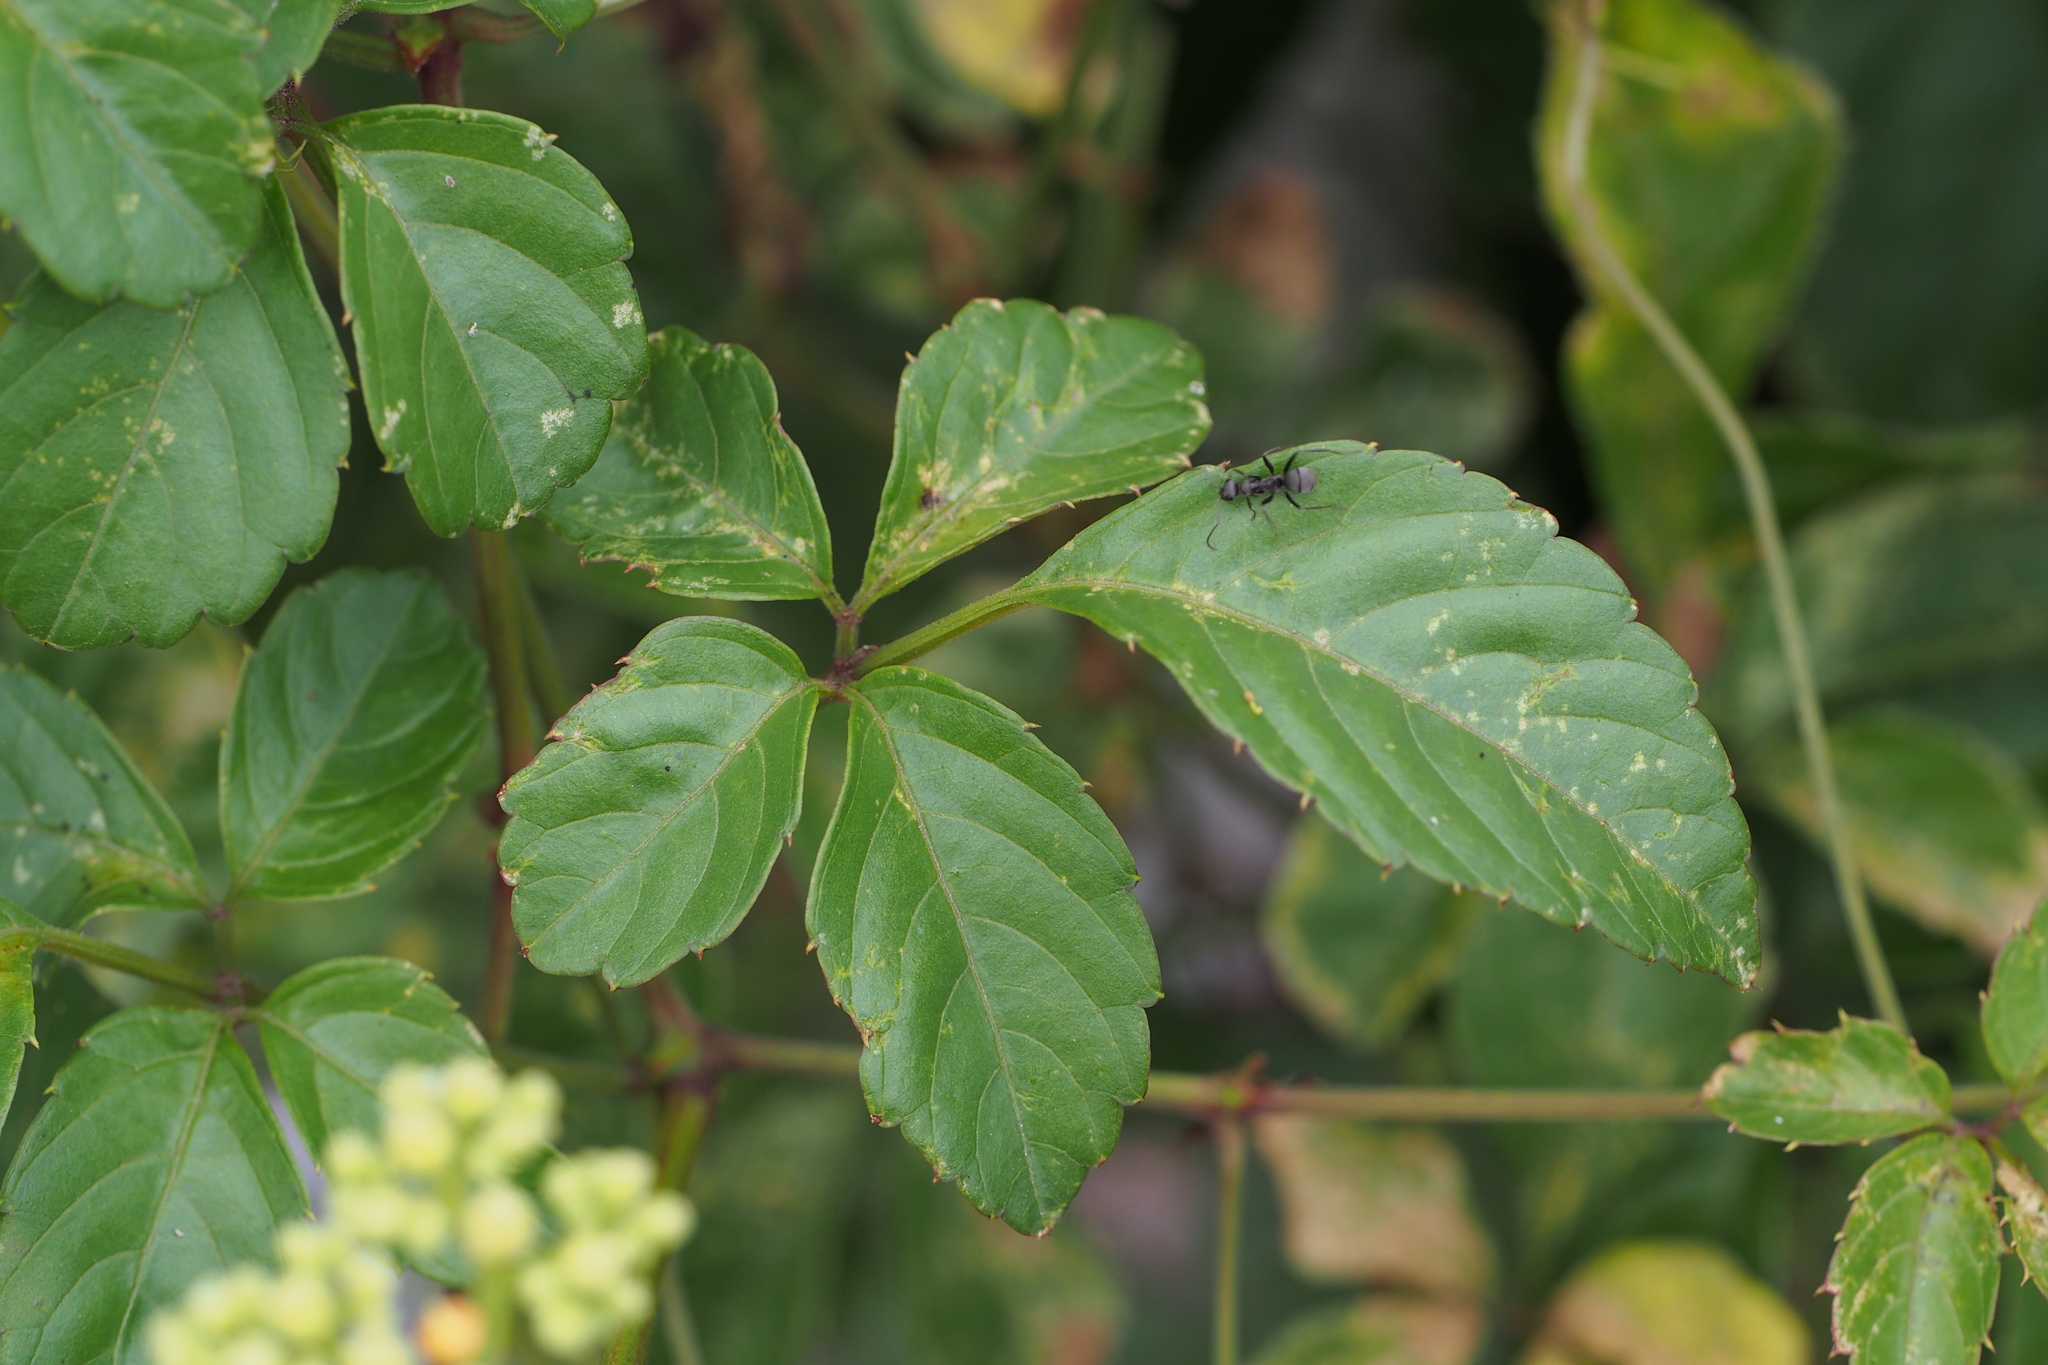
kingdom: Plantae
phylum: Tracheophyta
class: Magnoliopsida
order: Vitales
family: Vitaceae
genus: Causonis
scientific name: Causonis japonica
